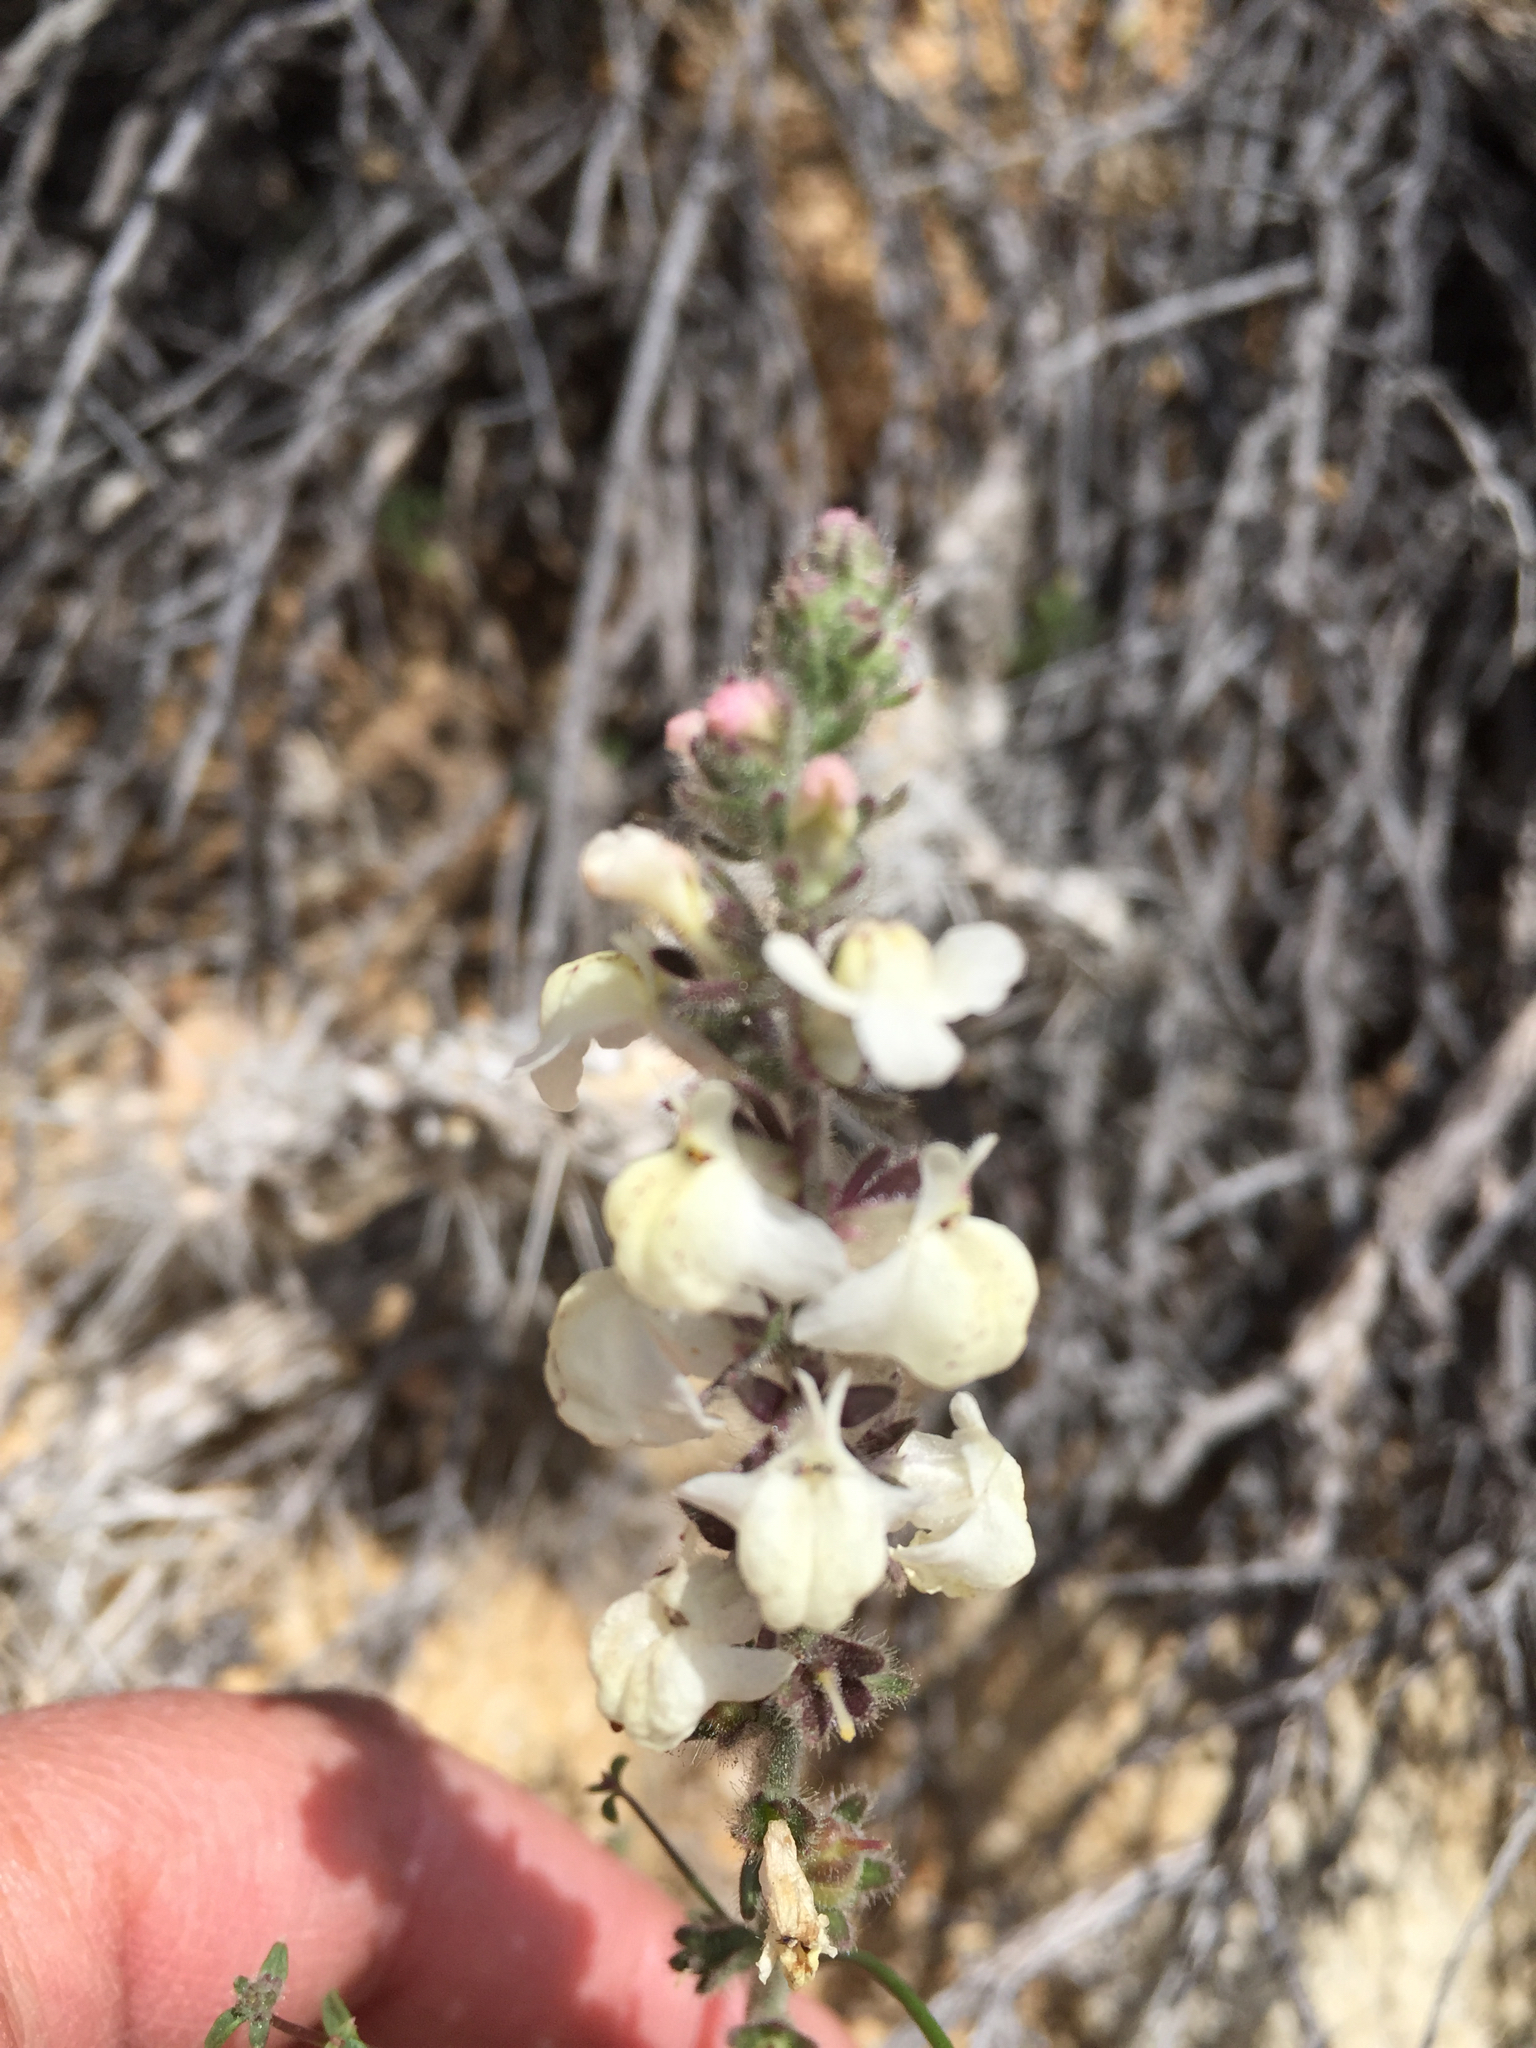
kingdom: Plantae
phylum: Tracheophyta
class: Magnoliopsida
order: Lamiales
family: Plantaginaceae
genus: Sairocarpus
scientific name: Sairocarpus coulterianus
